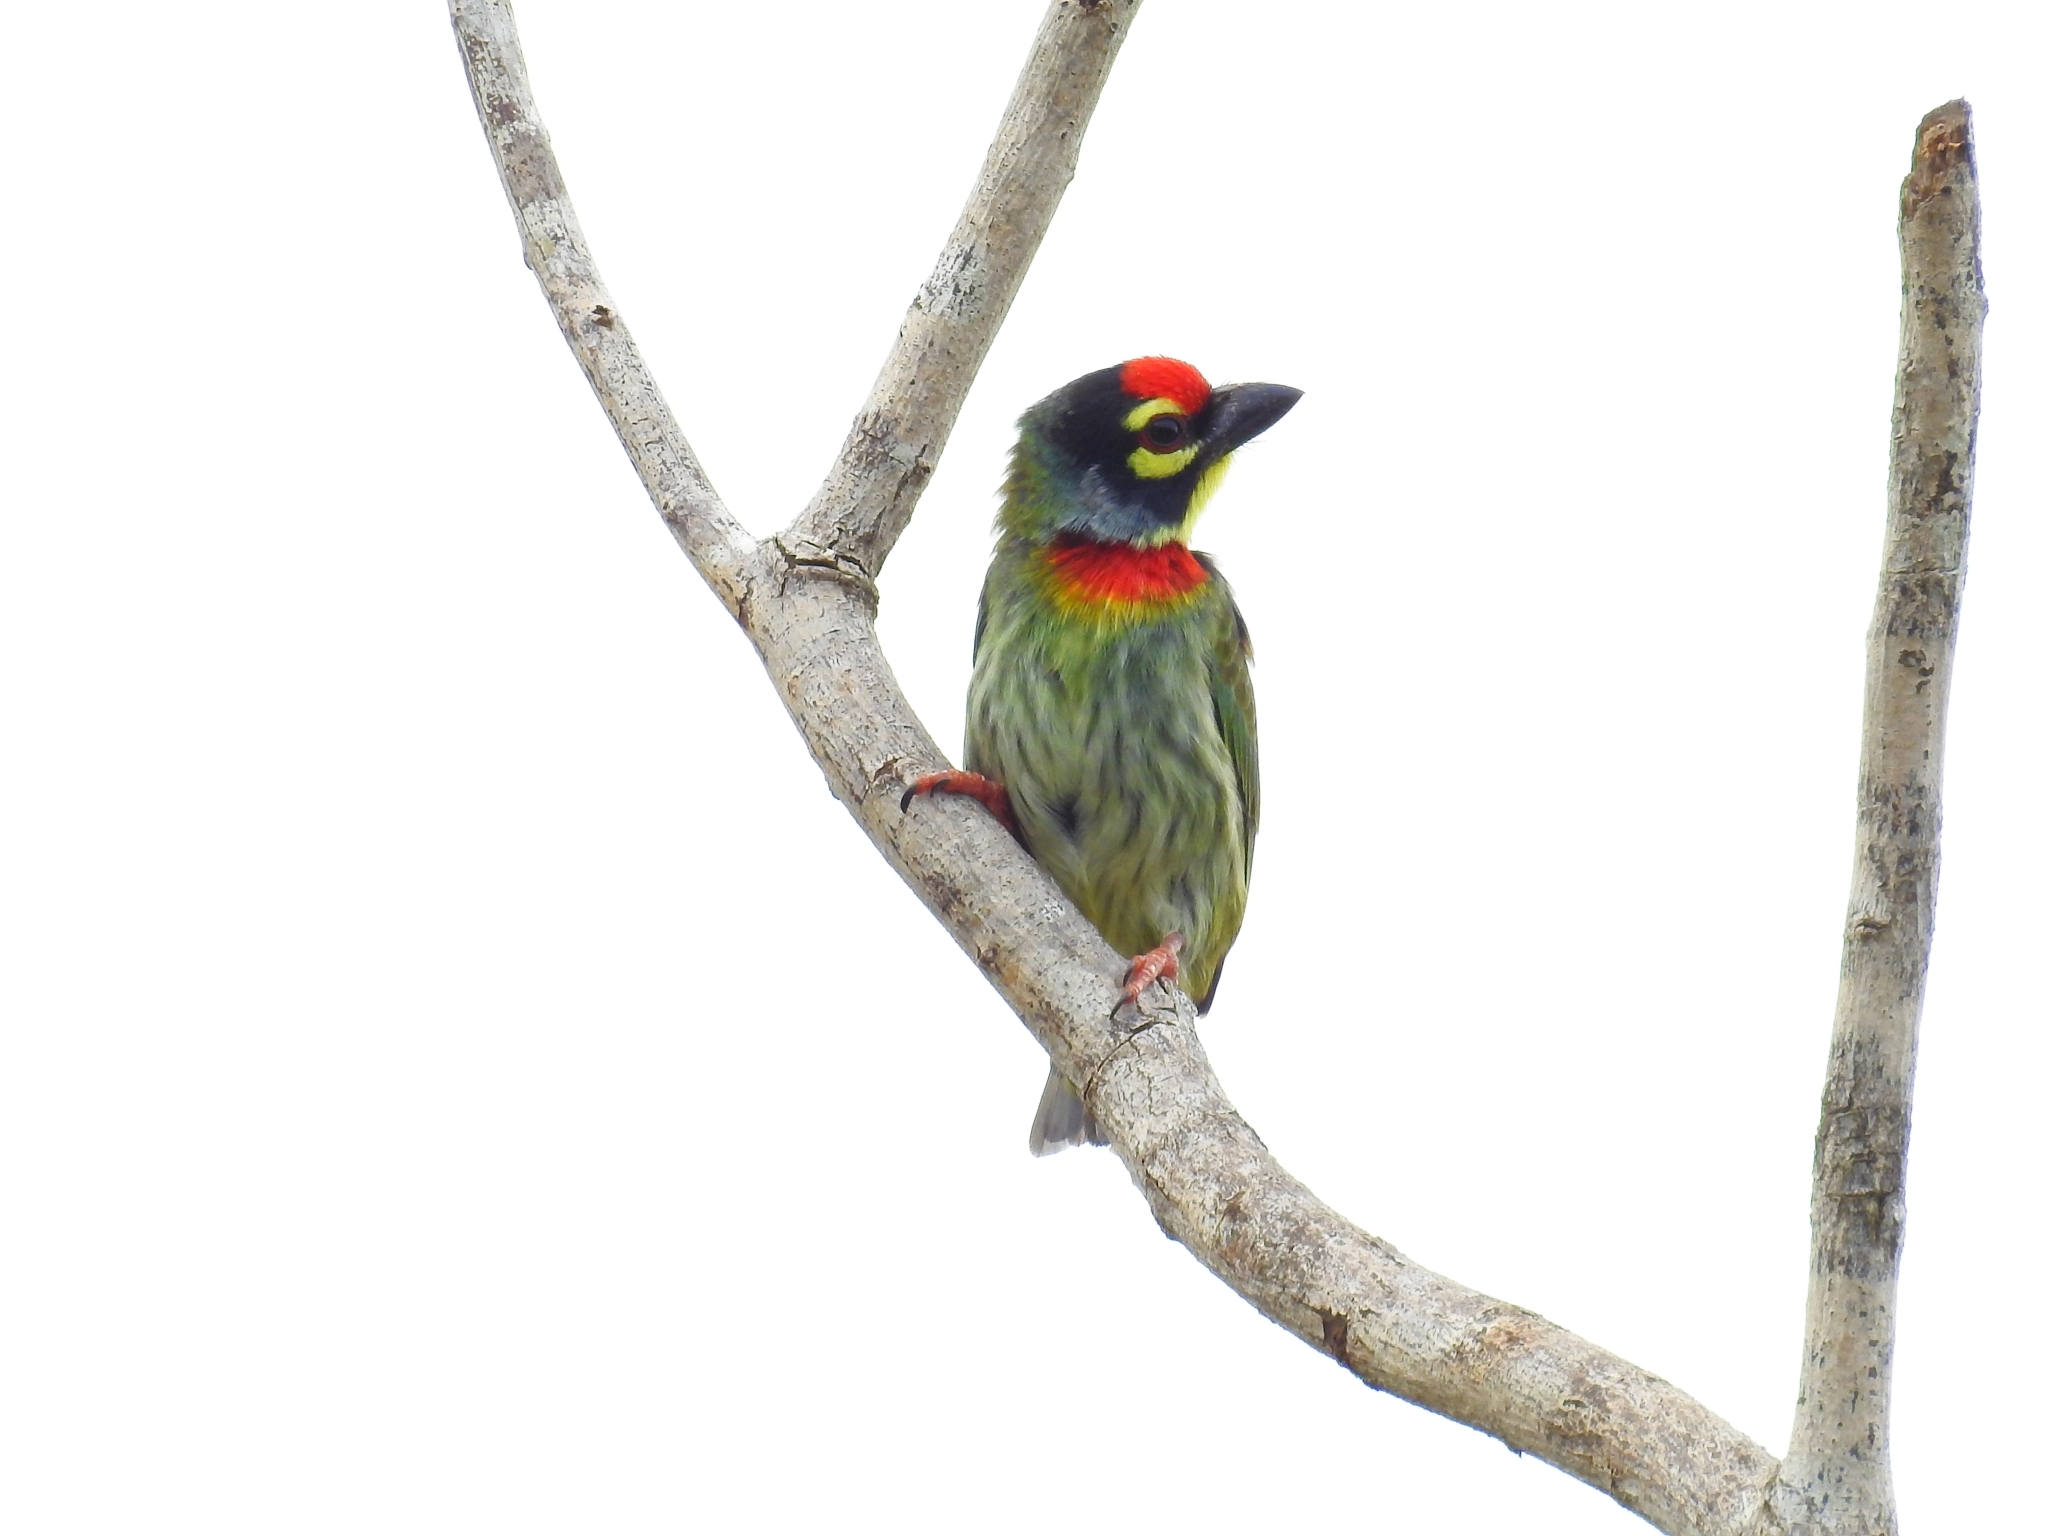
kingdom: Animalia
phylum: Chordata
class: Aves
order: Piciformes
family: Megalaimidae
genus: Psilopogon
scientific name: Psilopogon haemacephalus
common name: Coppersmith barbet
